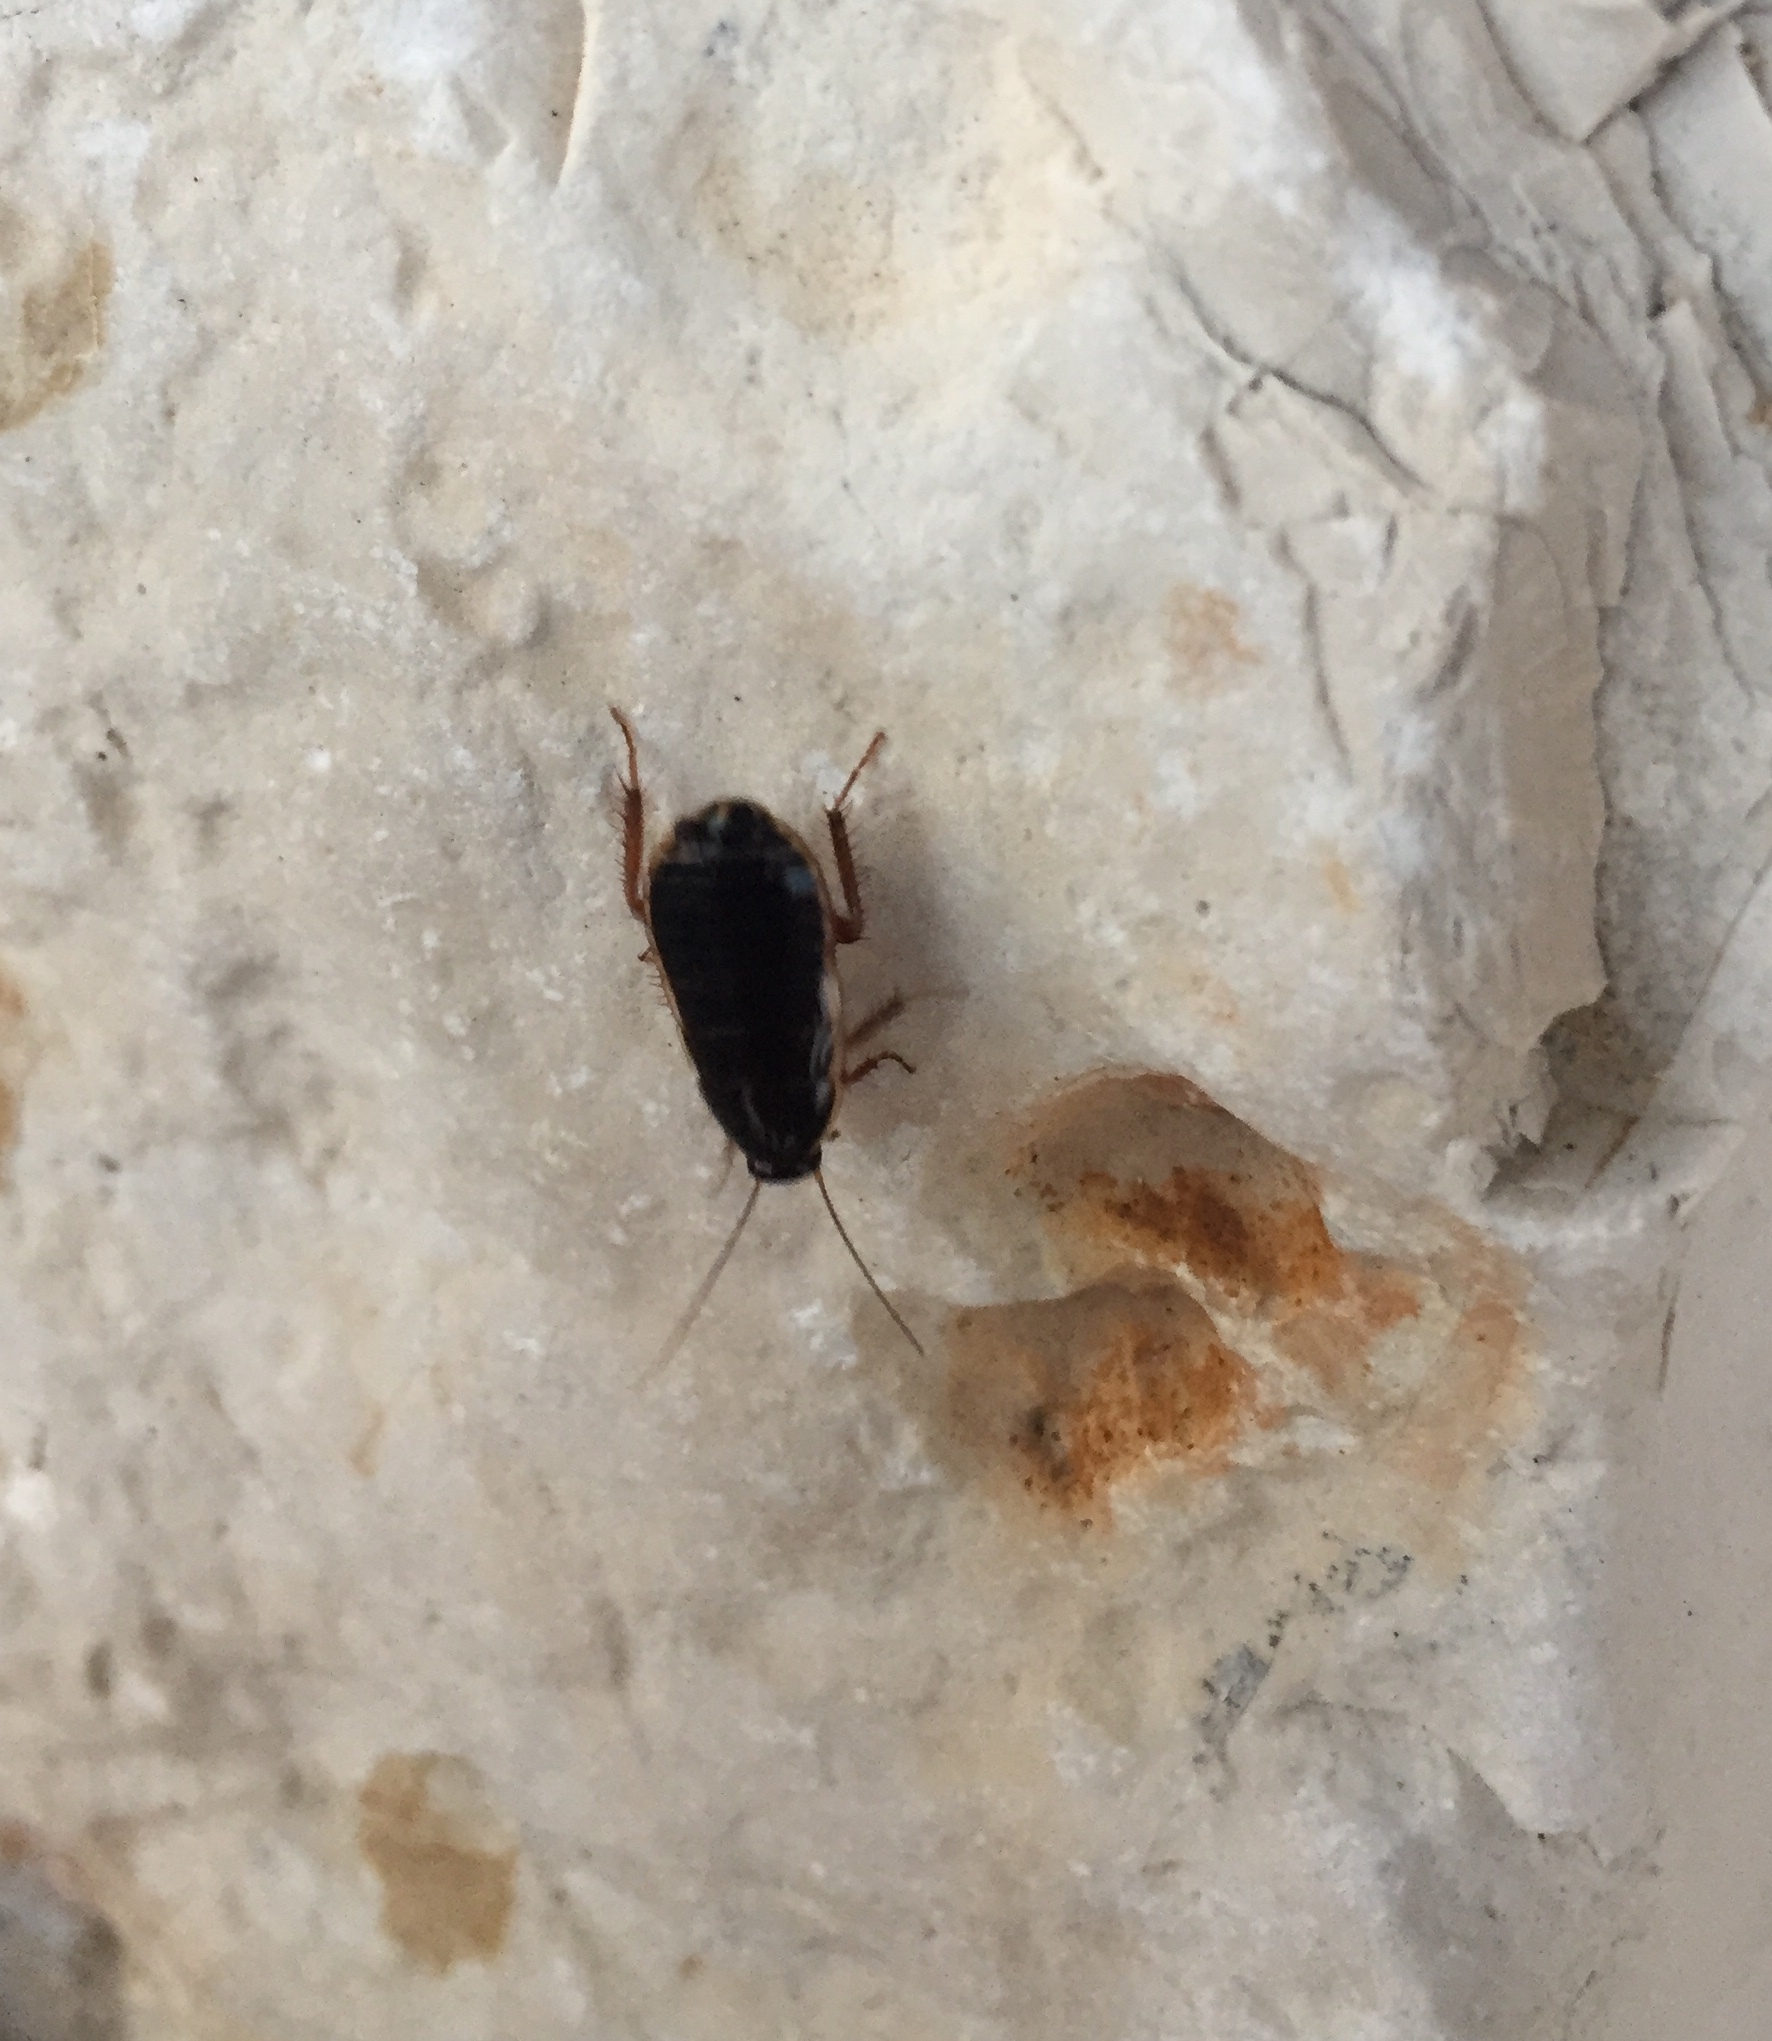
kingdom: Animalia
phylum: Arthropoda
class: Insecta
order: Blattodea
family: Ectobiidae
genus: Loboptera
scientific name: Loboptera decipiens
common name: Lobe-winged cockroach
